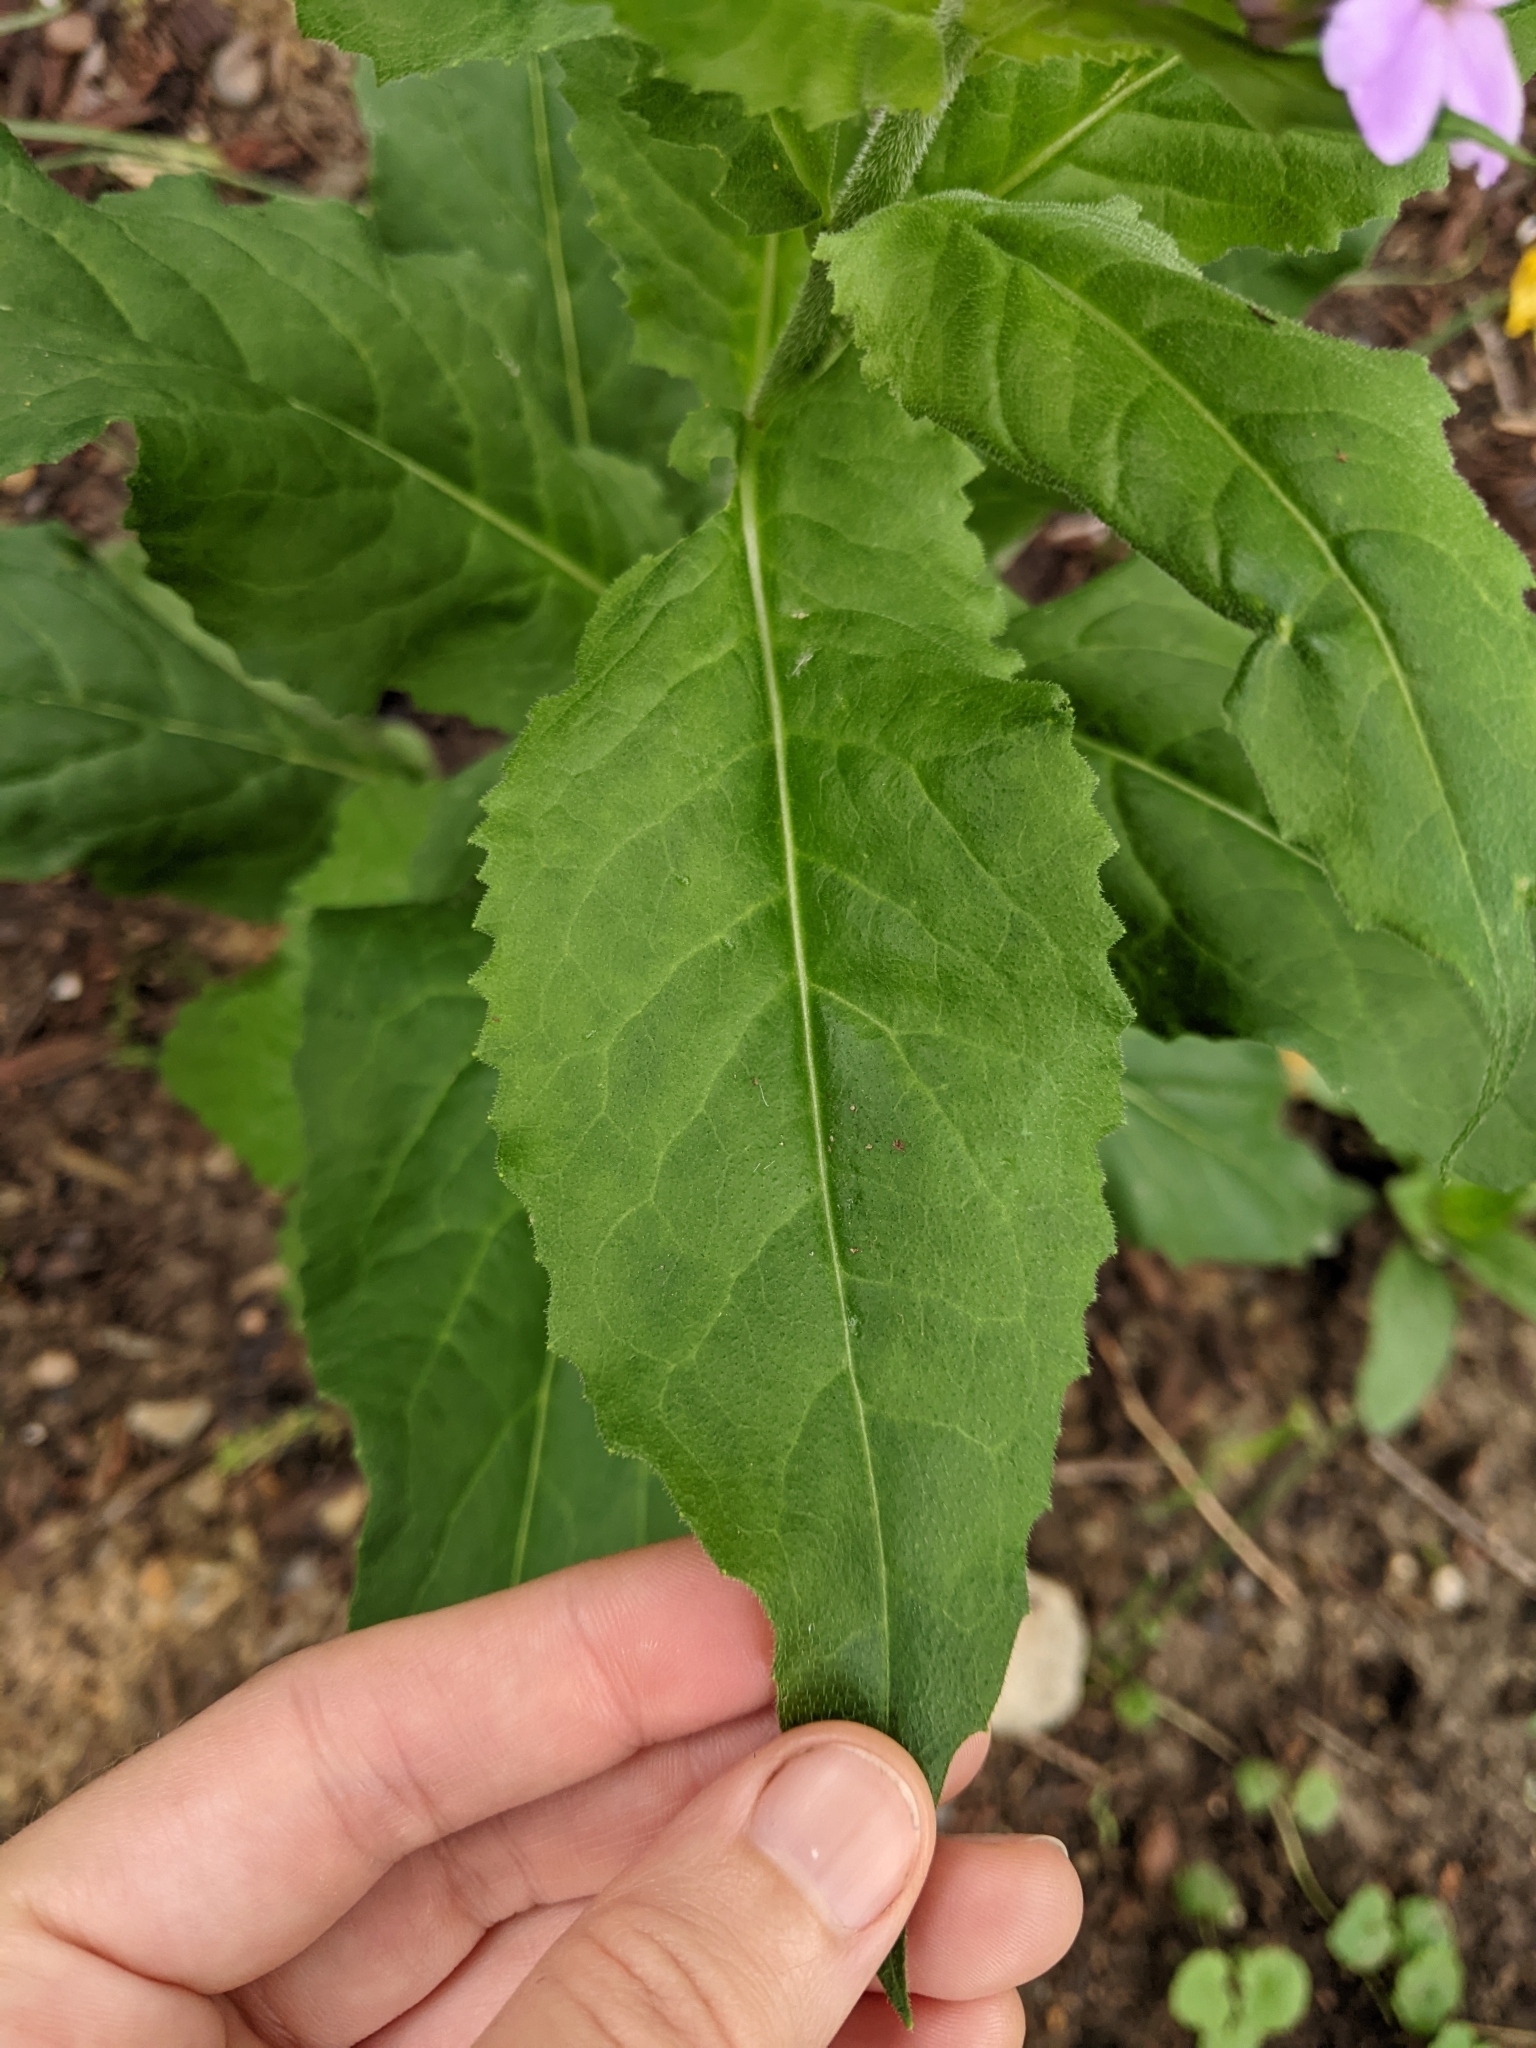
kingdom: Plantae
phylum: Tracheophyta
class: Magnoliopsida
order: Brassicales
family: Brassicaceae
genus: Hesperis
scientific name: Hesperis matronalis
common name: Dame's-violet
